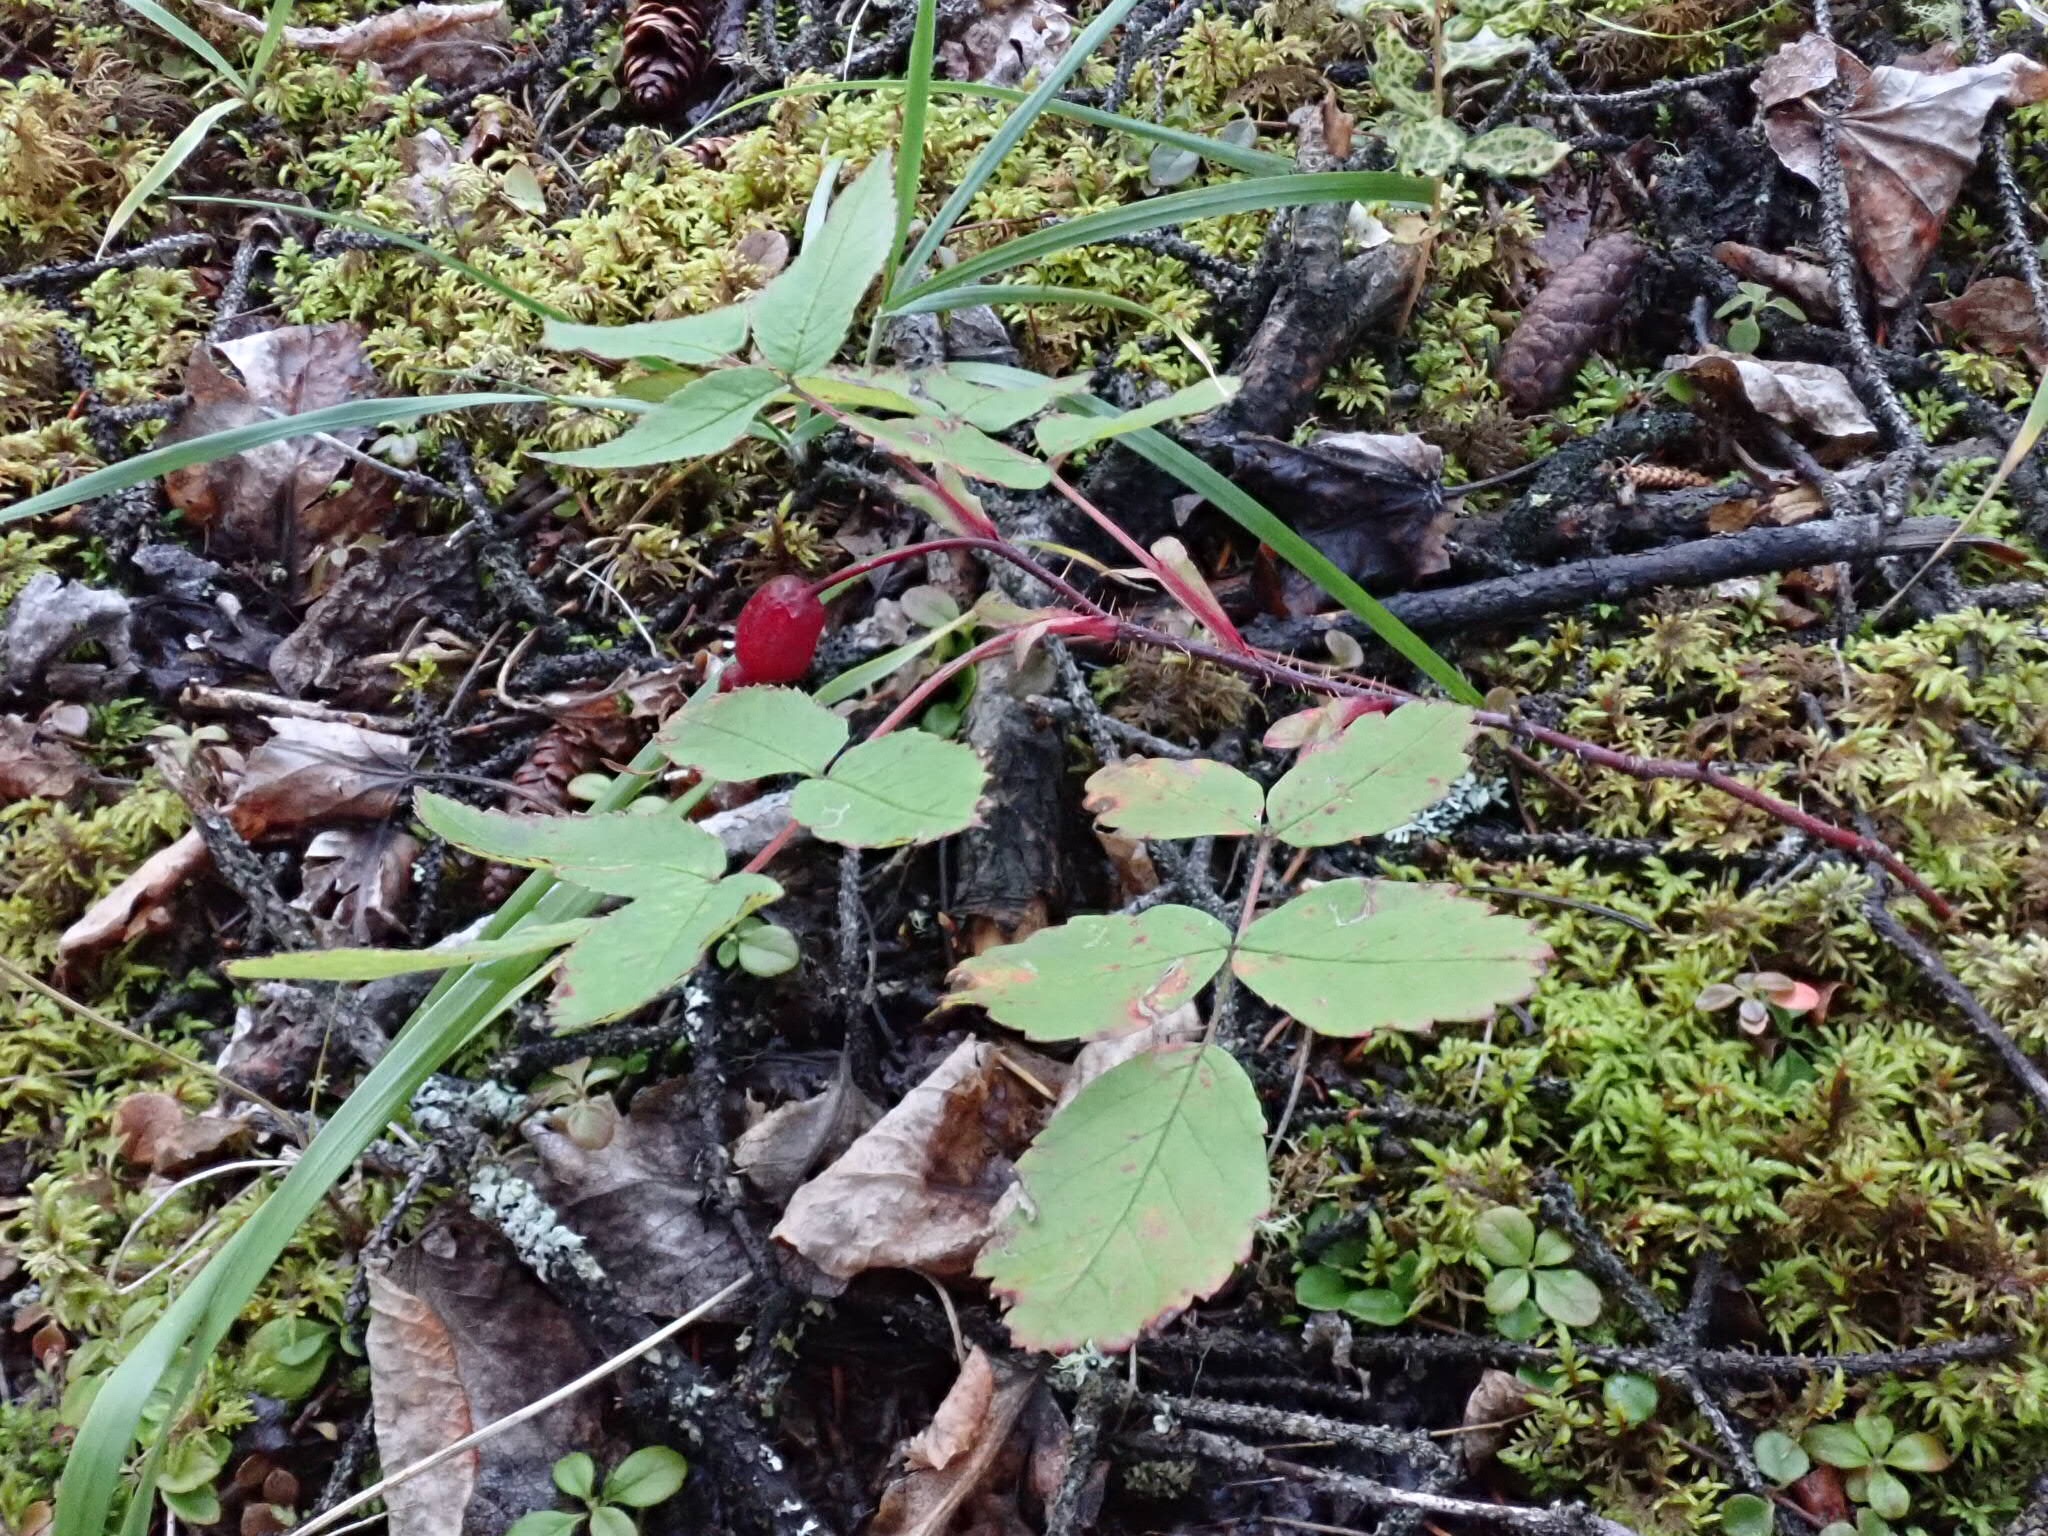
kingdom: Plantae
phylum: Tracheophyta
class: Magnoliopsida
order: Rosales
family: Rosaceae
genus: Rosa
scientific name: Rosa acicularis
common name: Prickly rose
